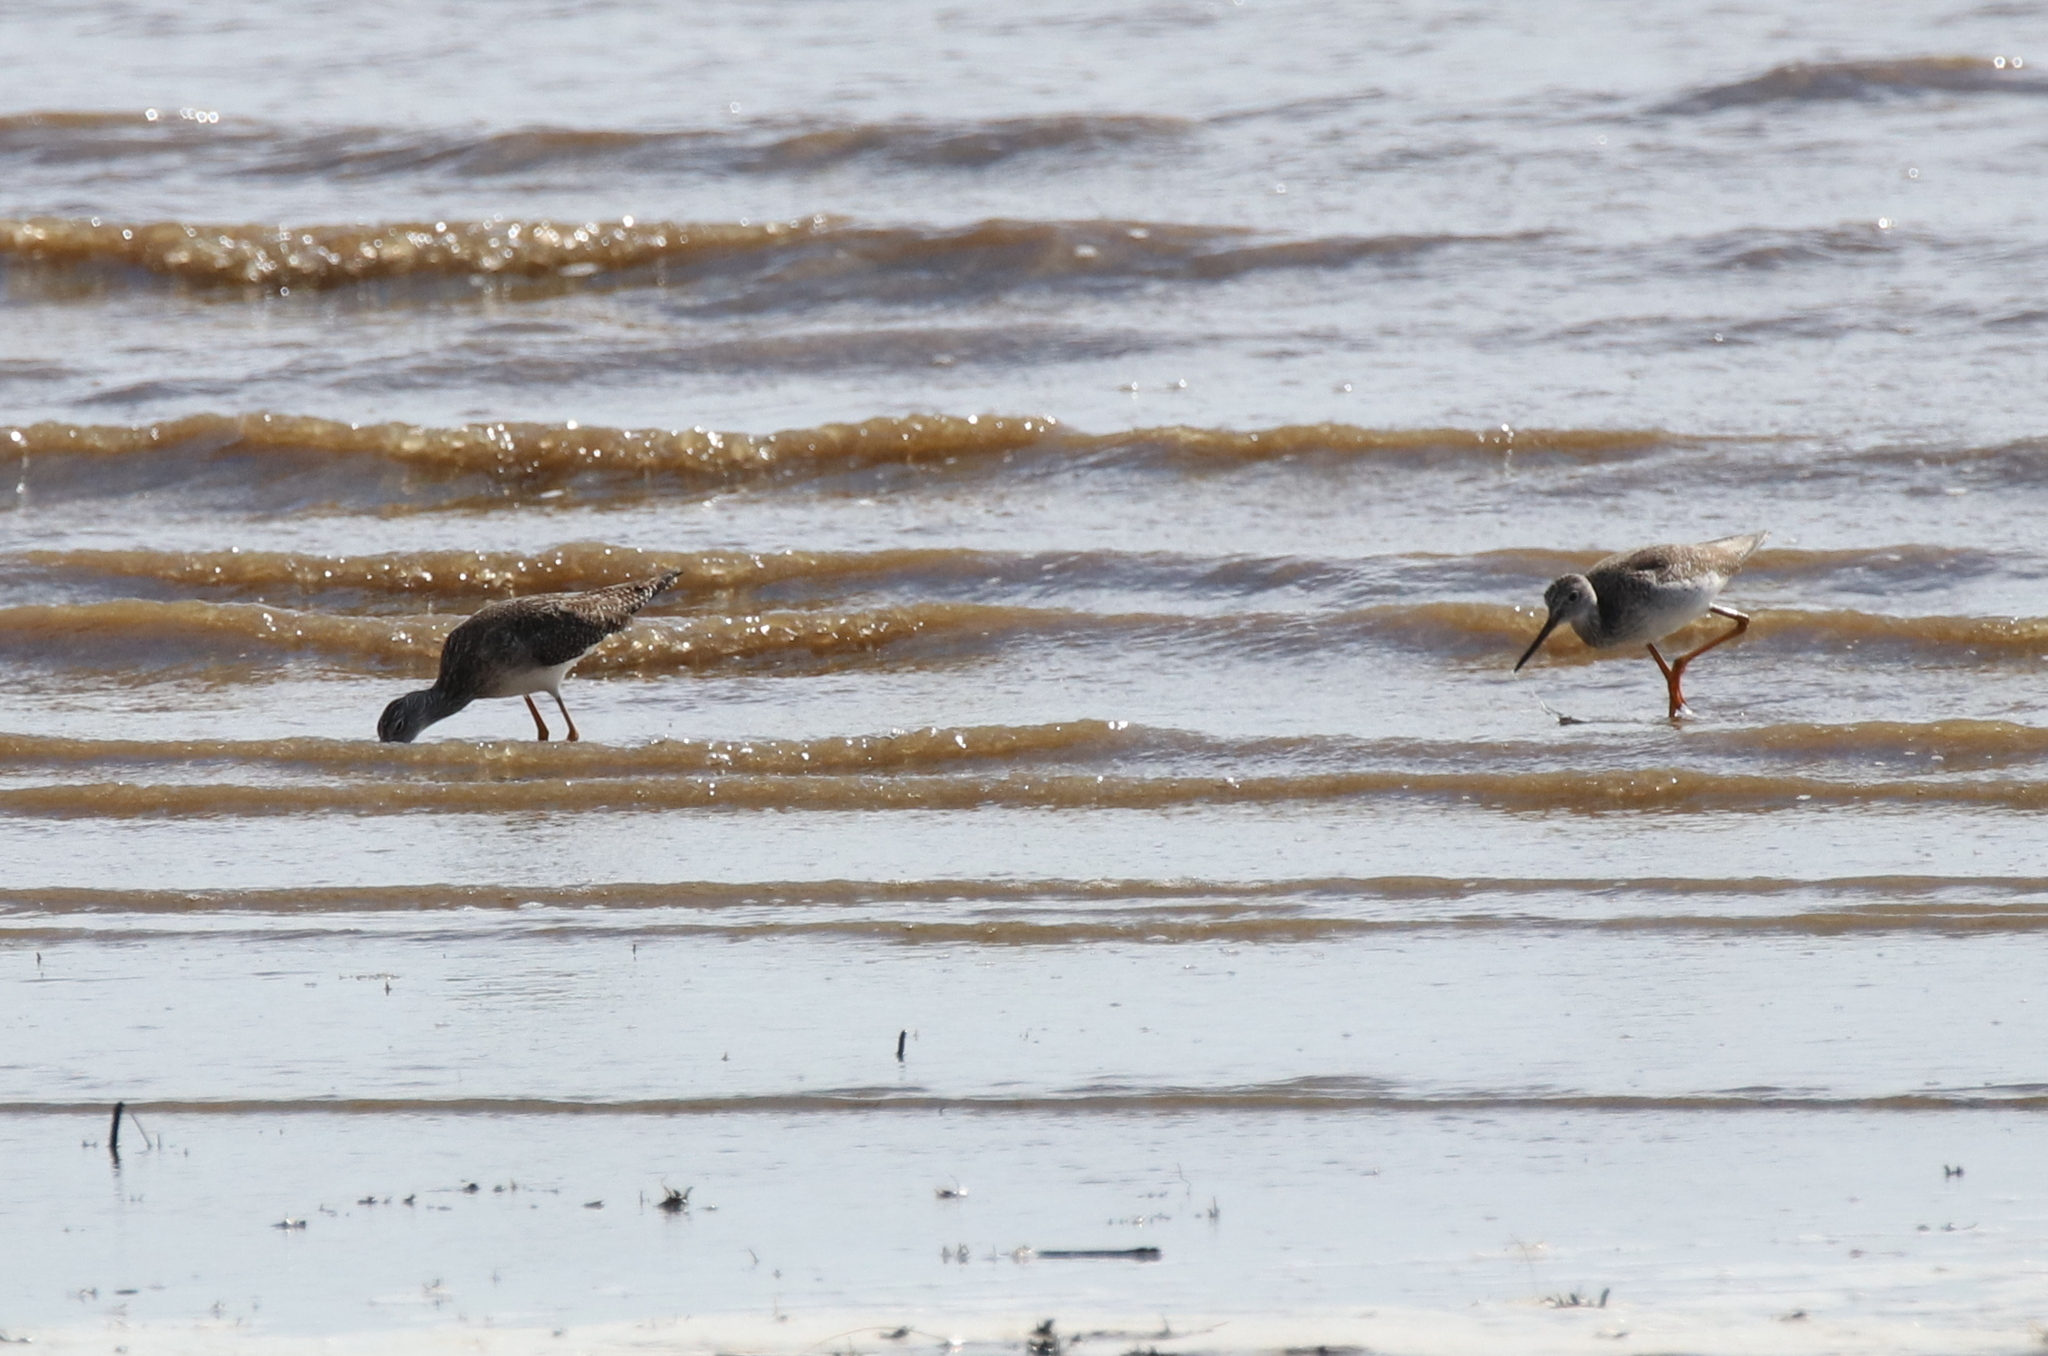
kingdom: Animalia
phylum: Chordata
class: Aves
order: Charadriiformes
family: Scolopacidae
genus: Tringa
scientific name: Tringa melanoleuca
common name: Greater yellowlegs
